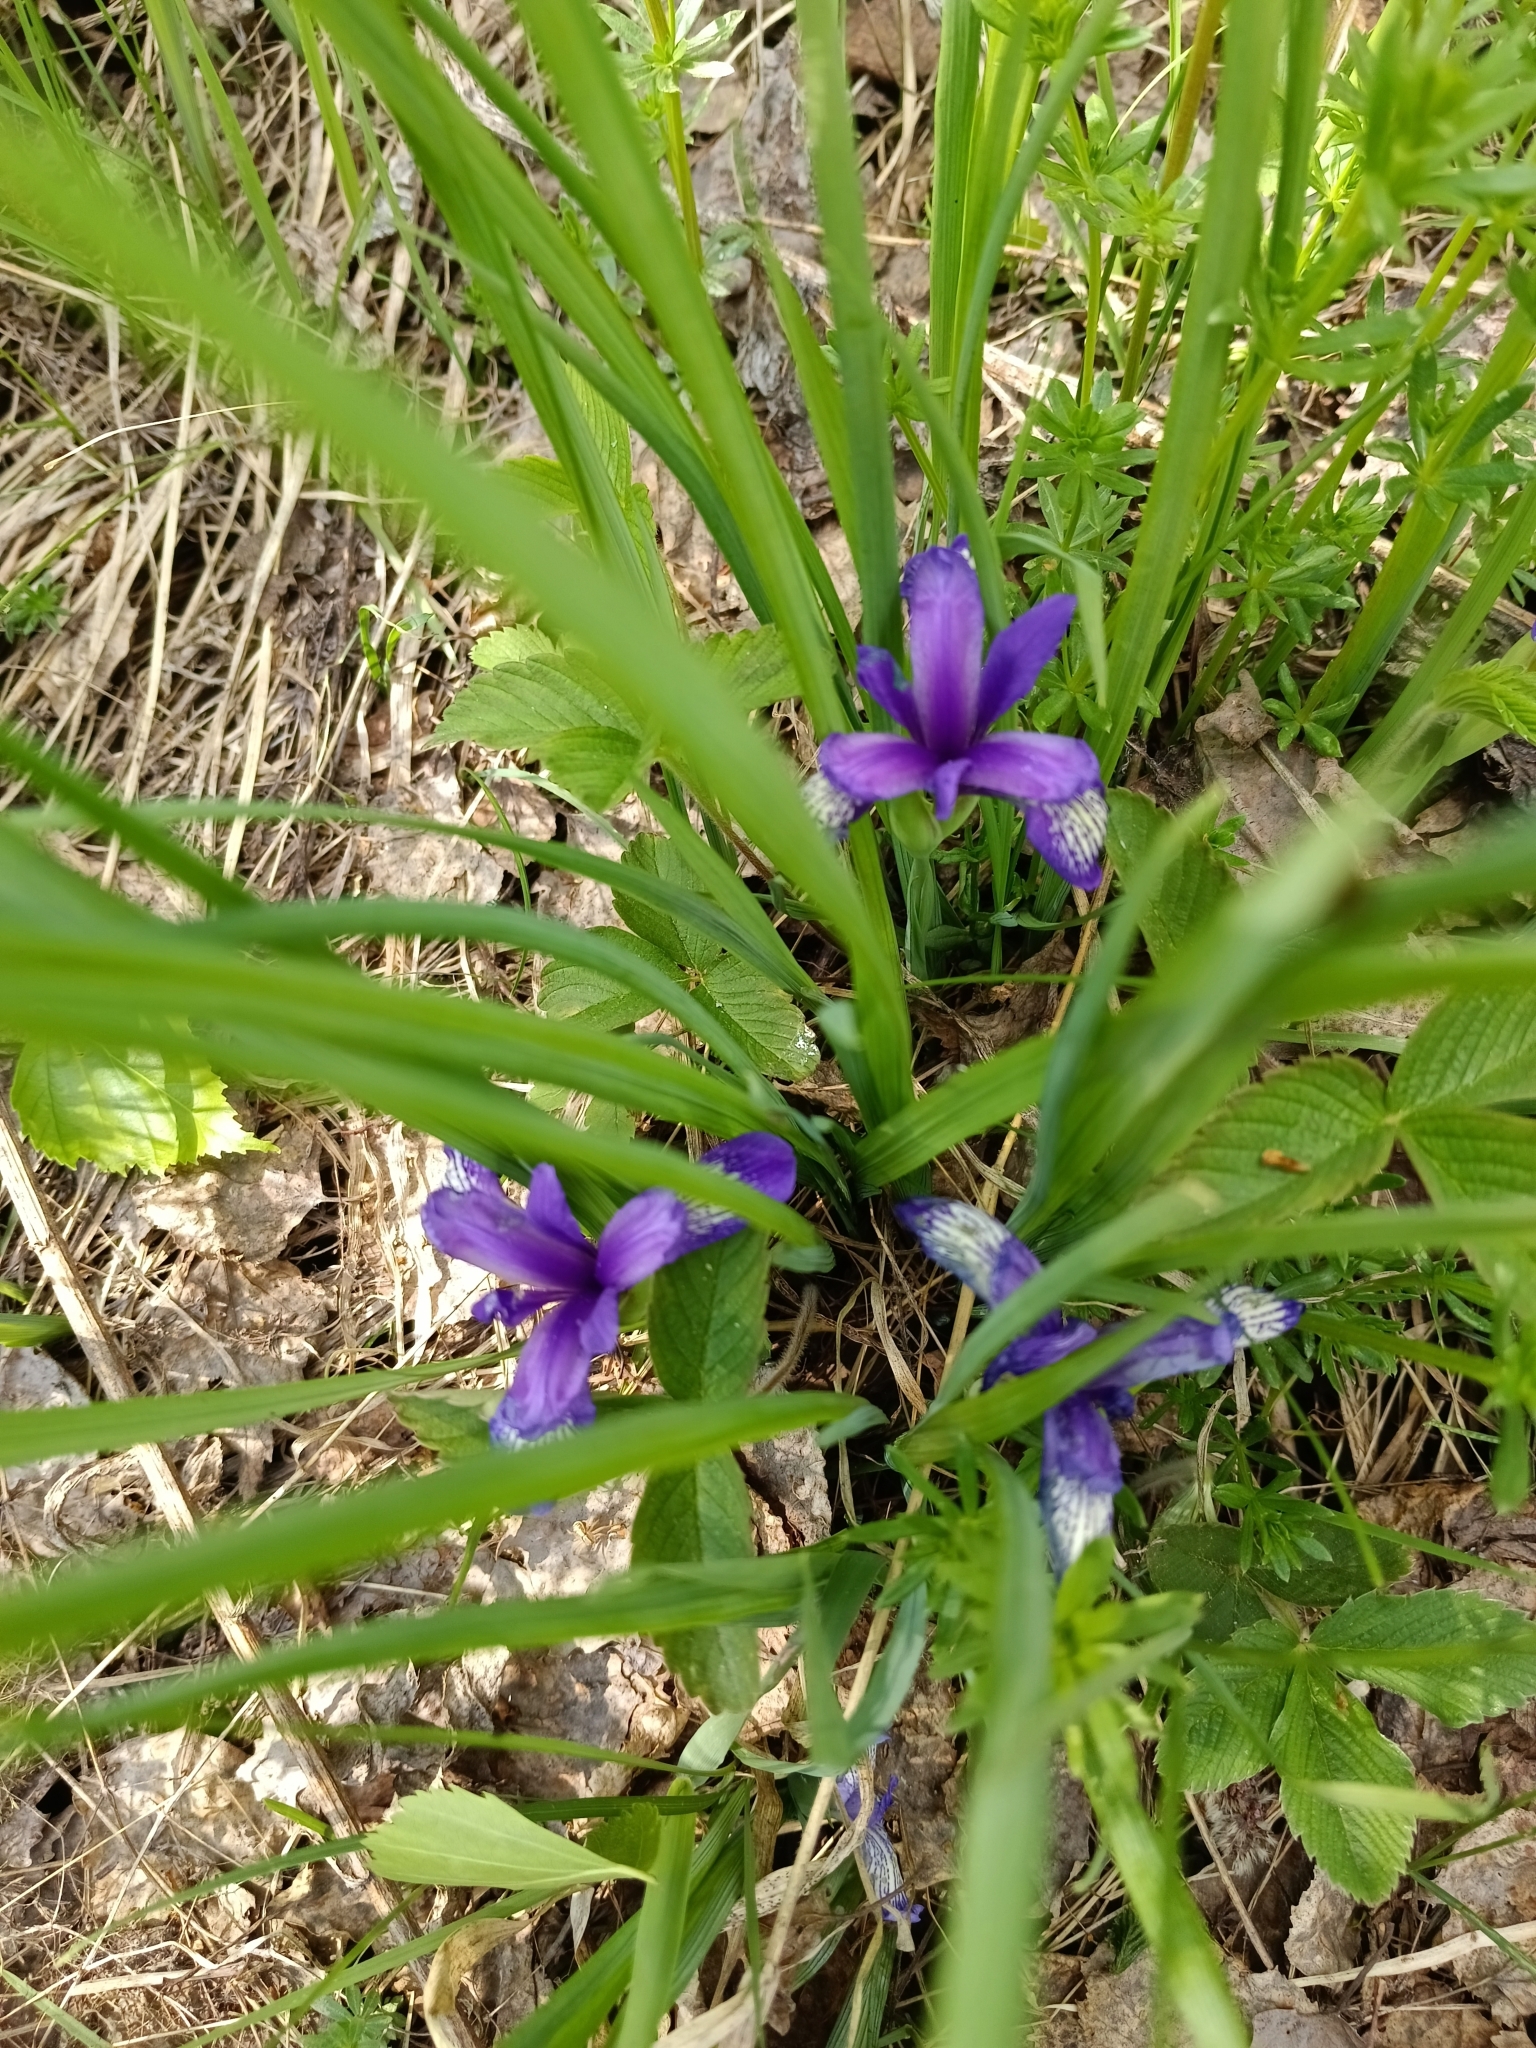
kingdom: Plantae
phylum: Tracheophyta
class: Liliopsida
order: Asparagales
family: Iridaceae
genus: Iris
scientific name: Iris ruthenica
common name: Purple-bract iris
